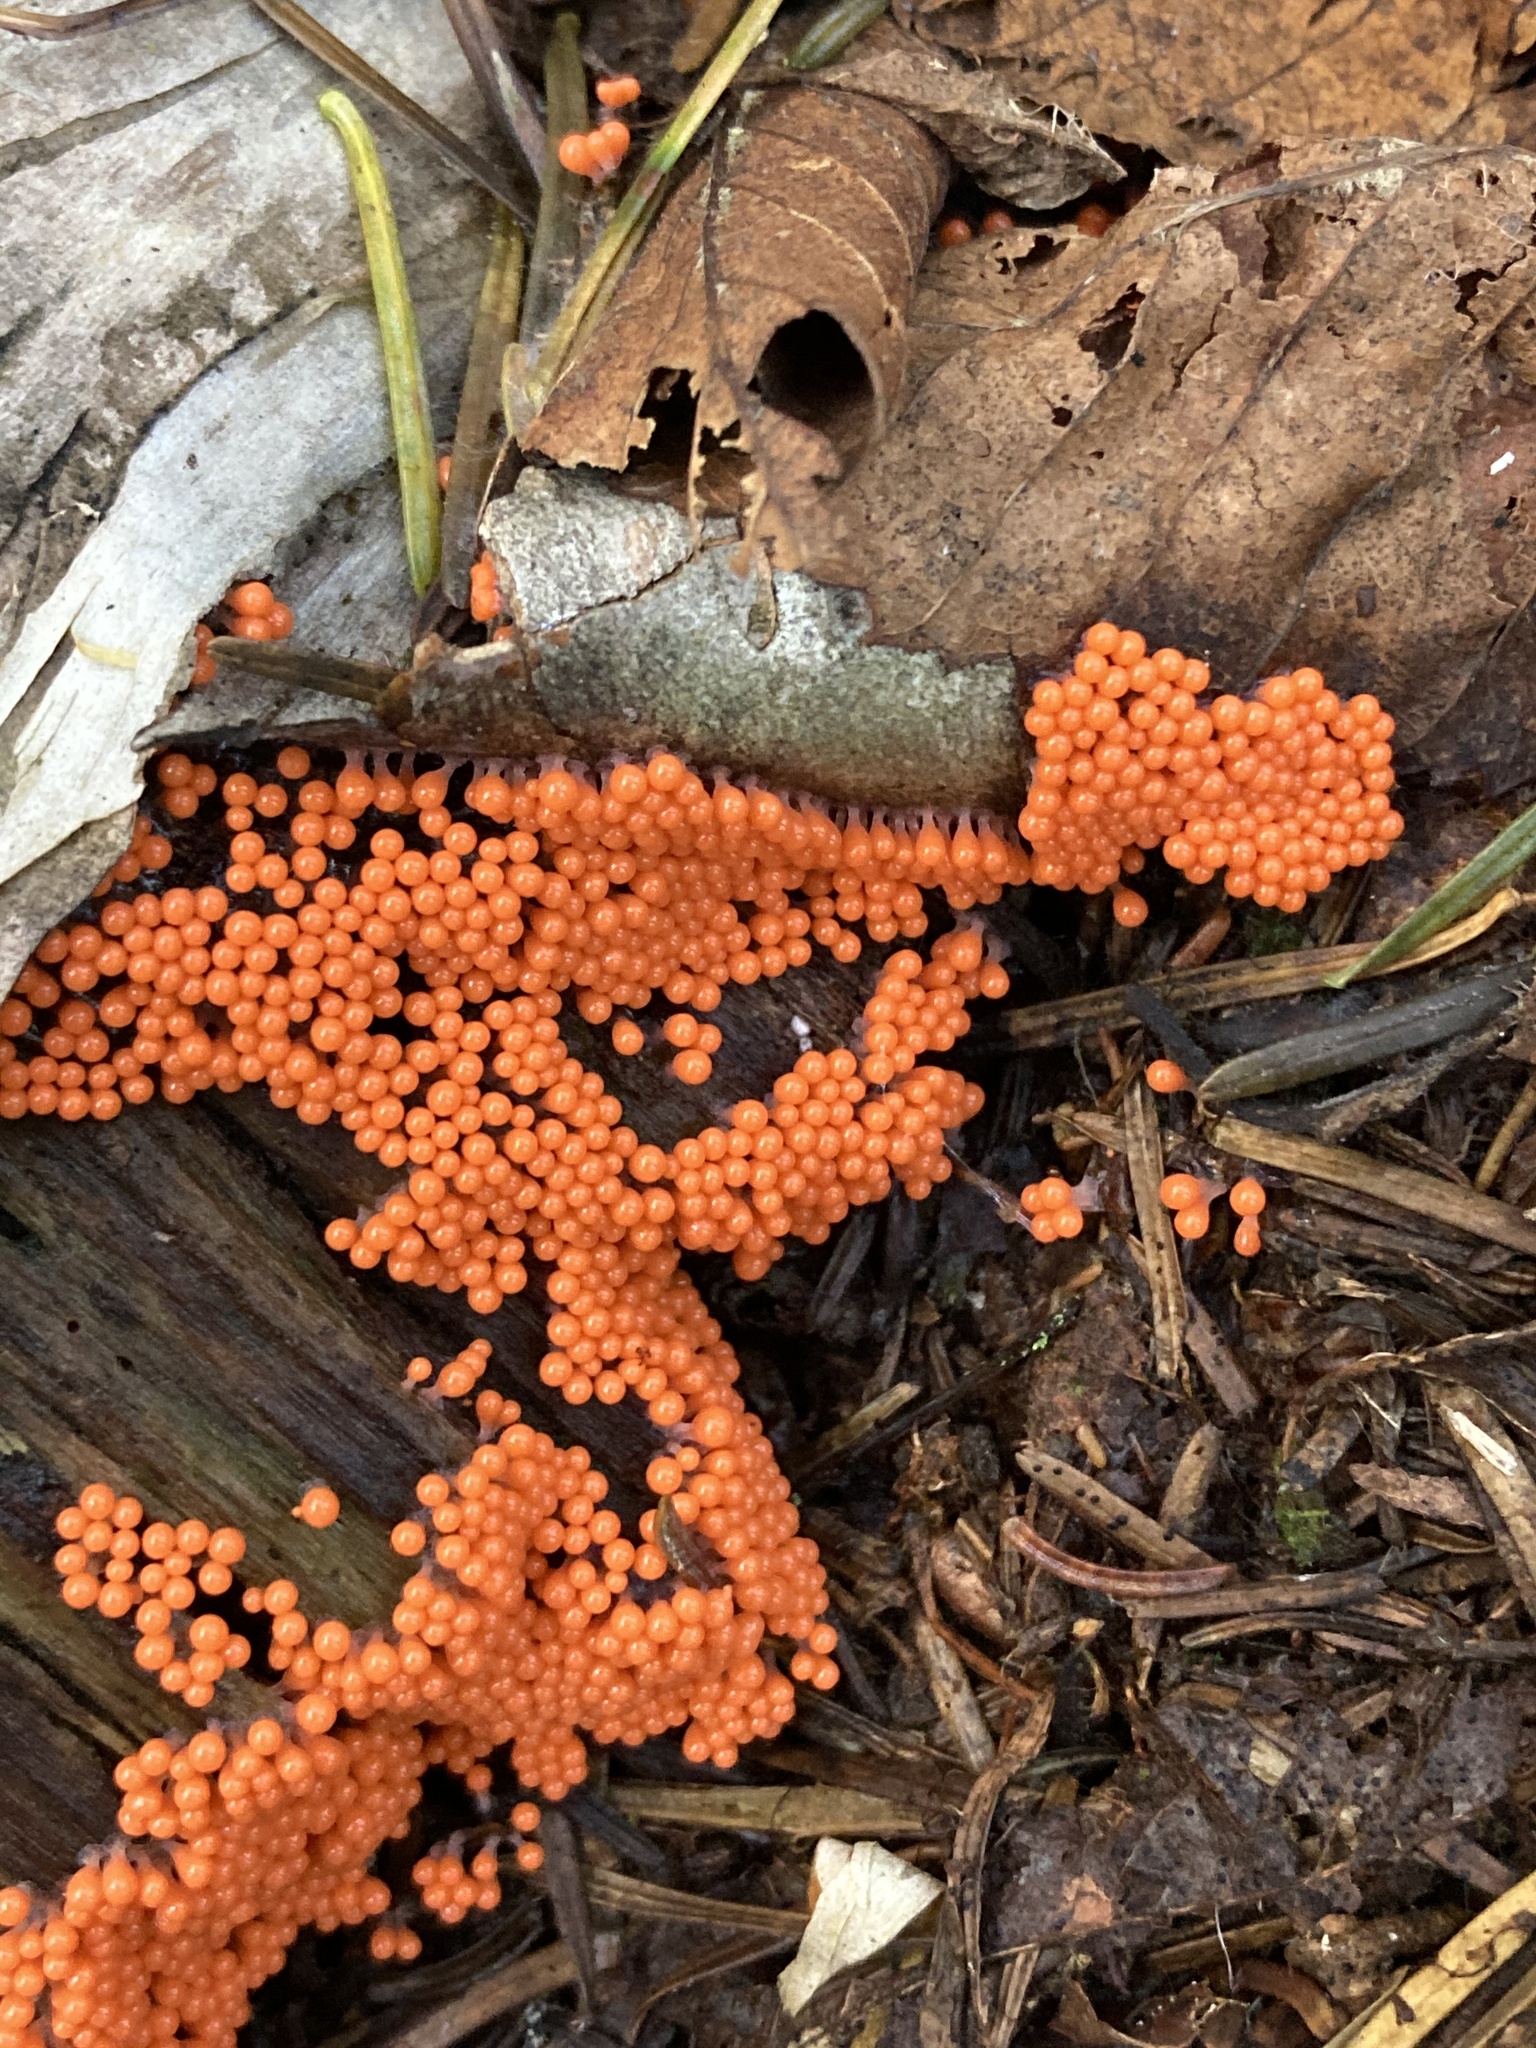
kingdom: Protozoa
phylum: Mycetozoa
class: Myxomycetes
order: Trichiales
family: Arcyriaceae
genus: Hemitrichia
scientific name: Hemitrichia decipiens
